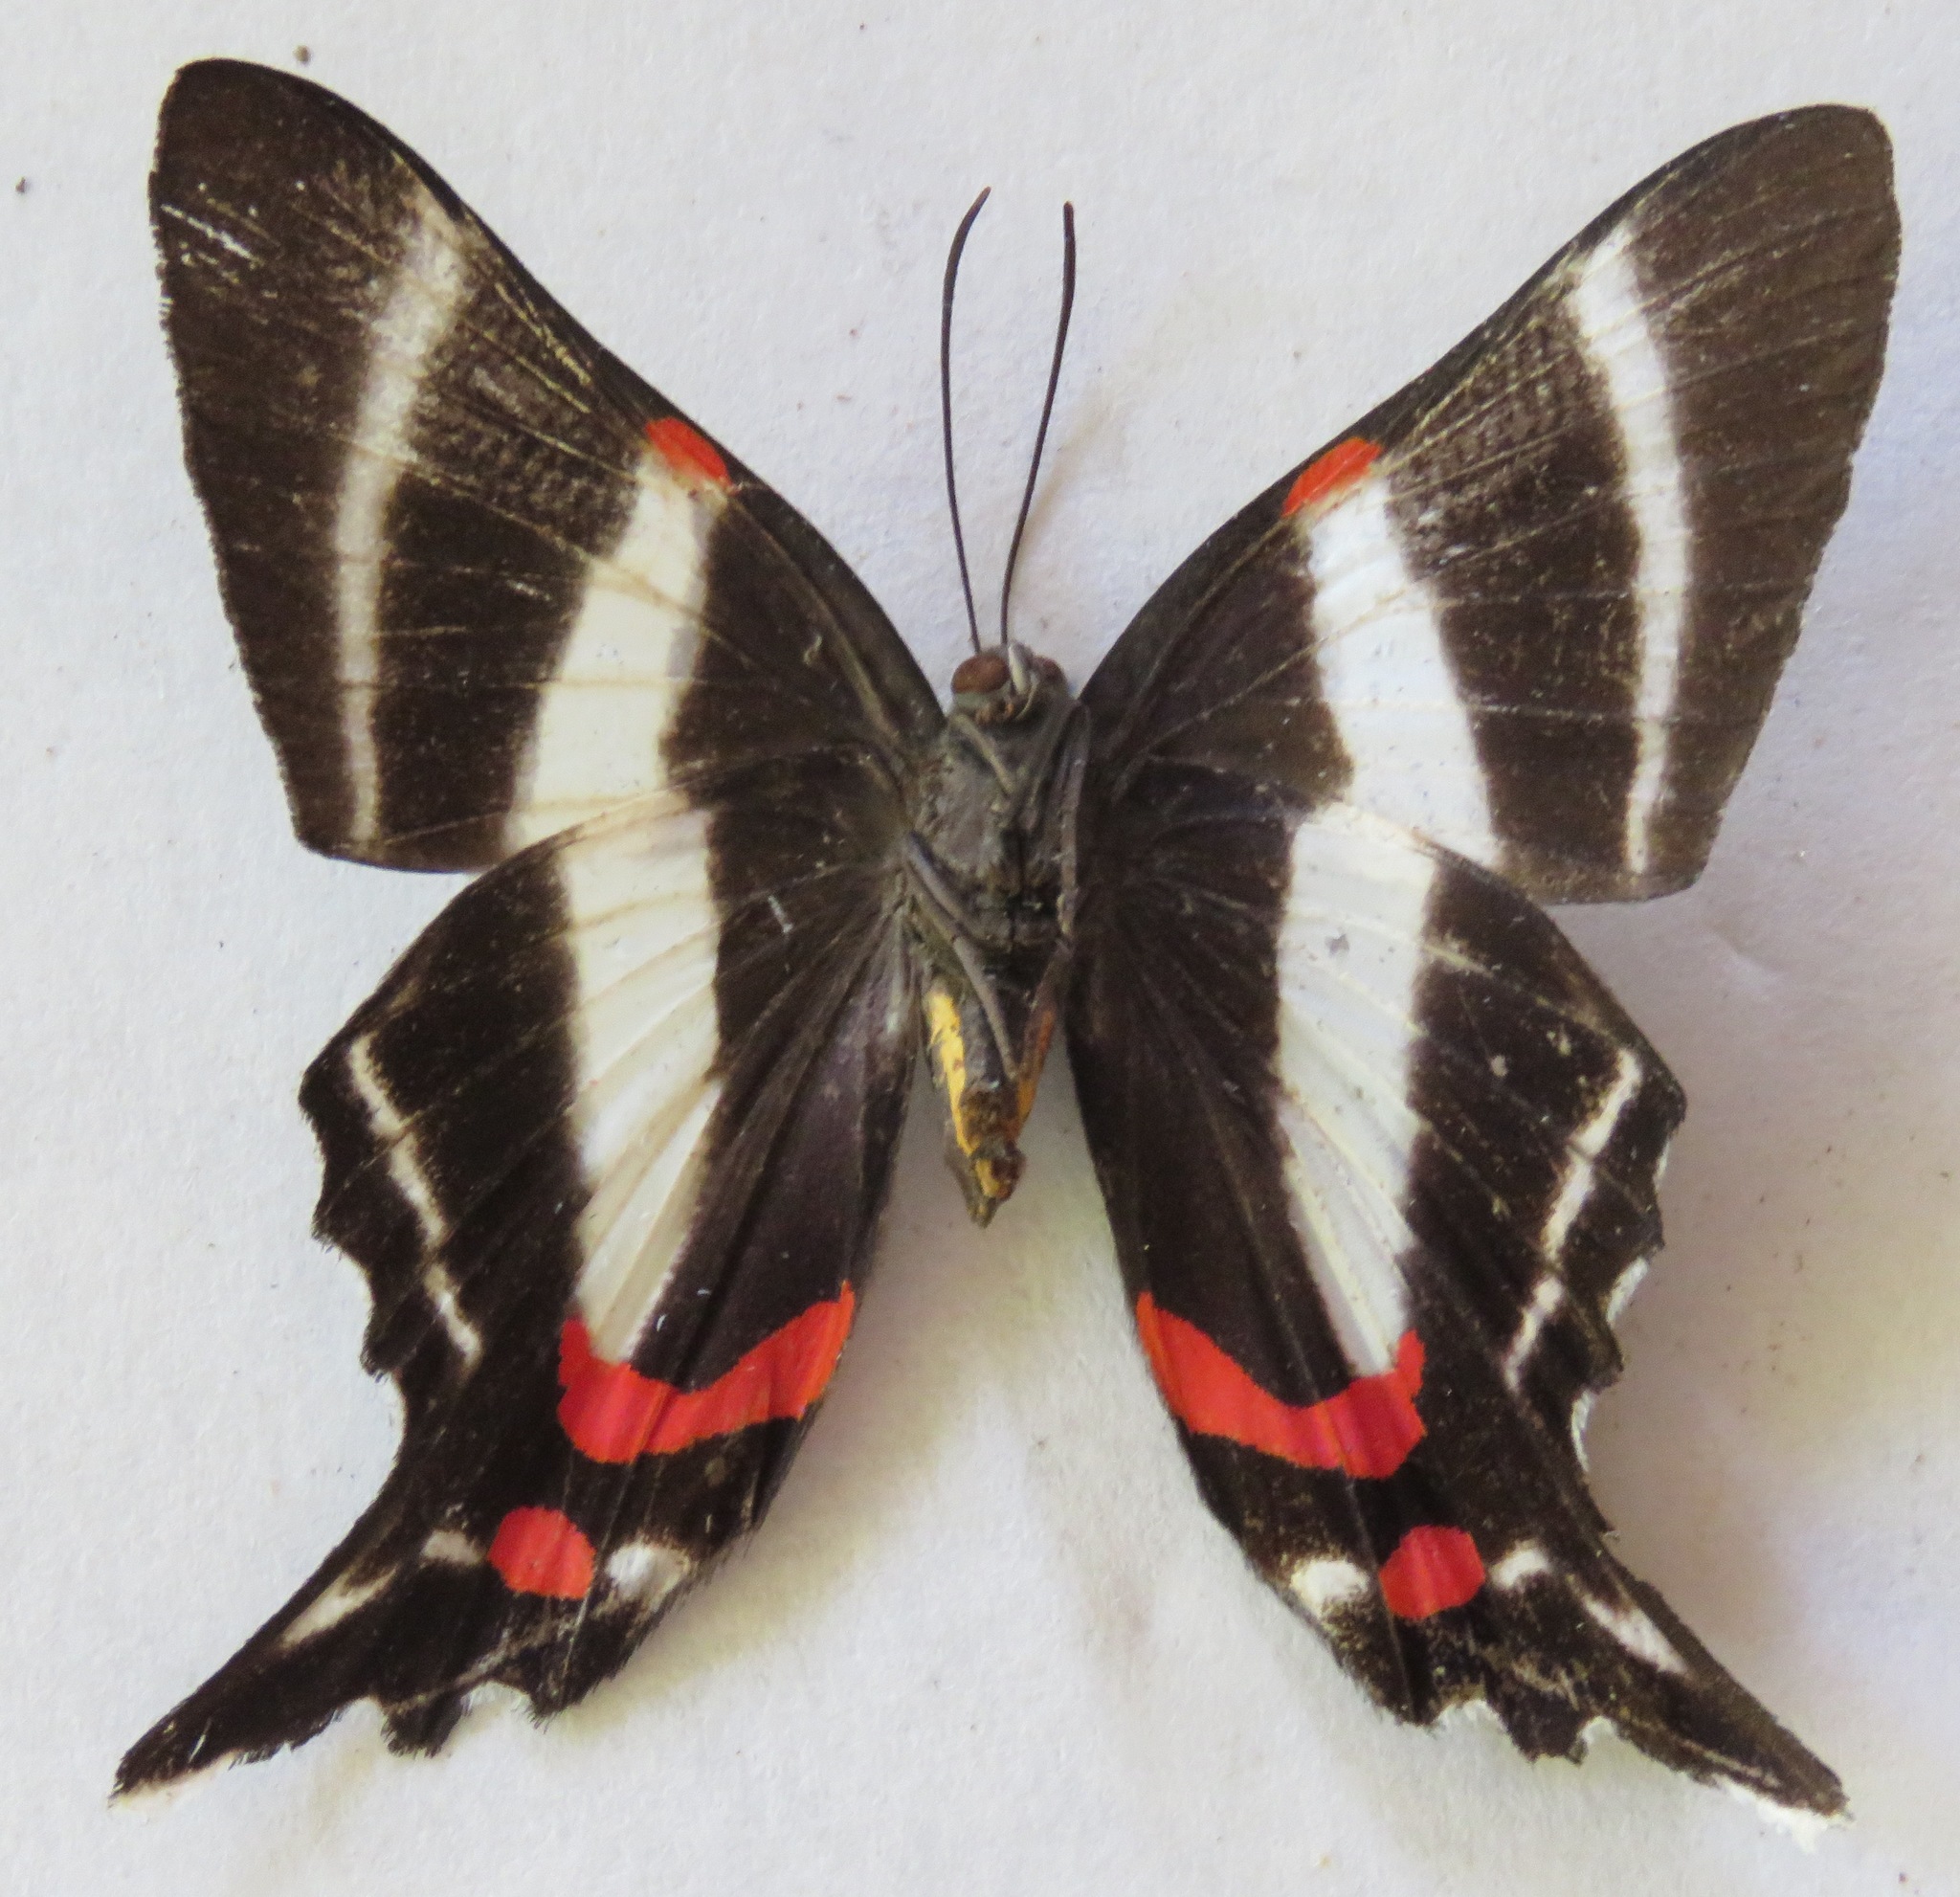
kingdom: Animalia
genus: Ancyluris
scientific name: Ancyluris jurgensenii
